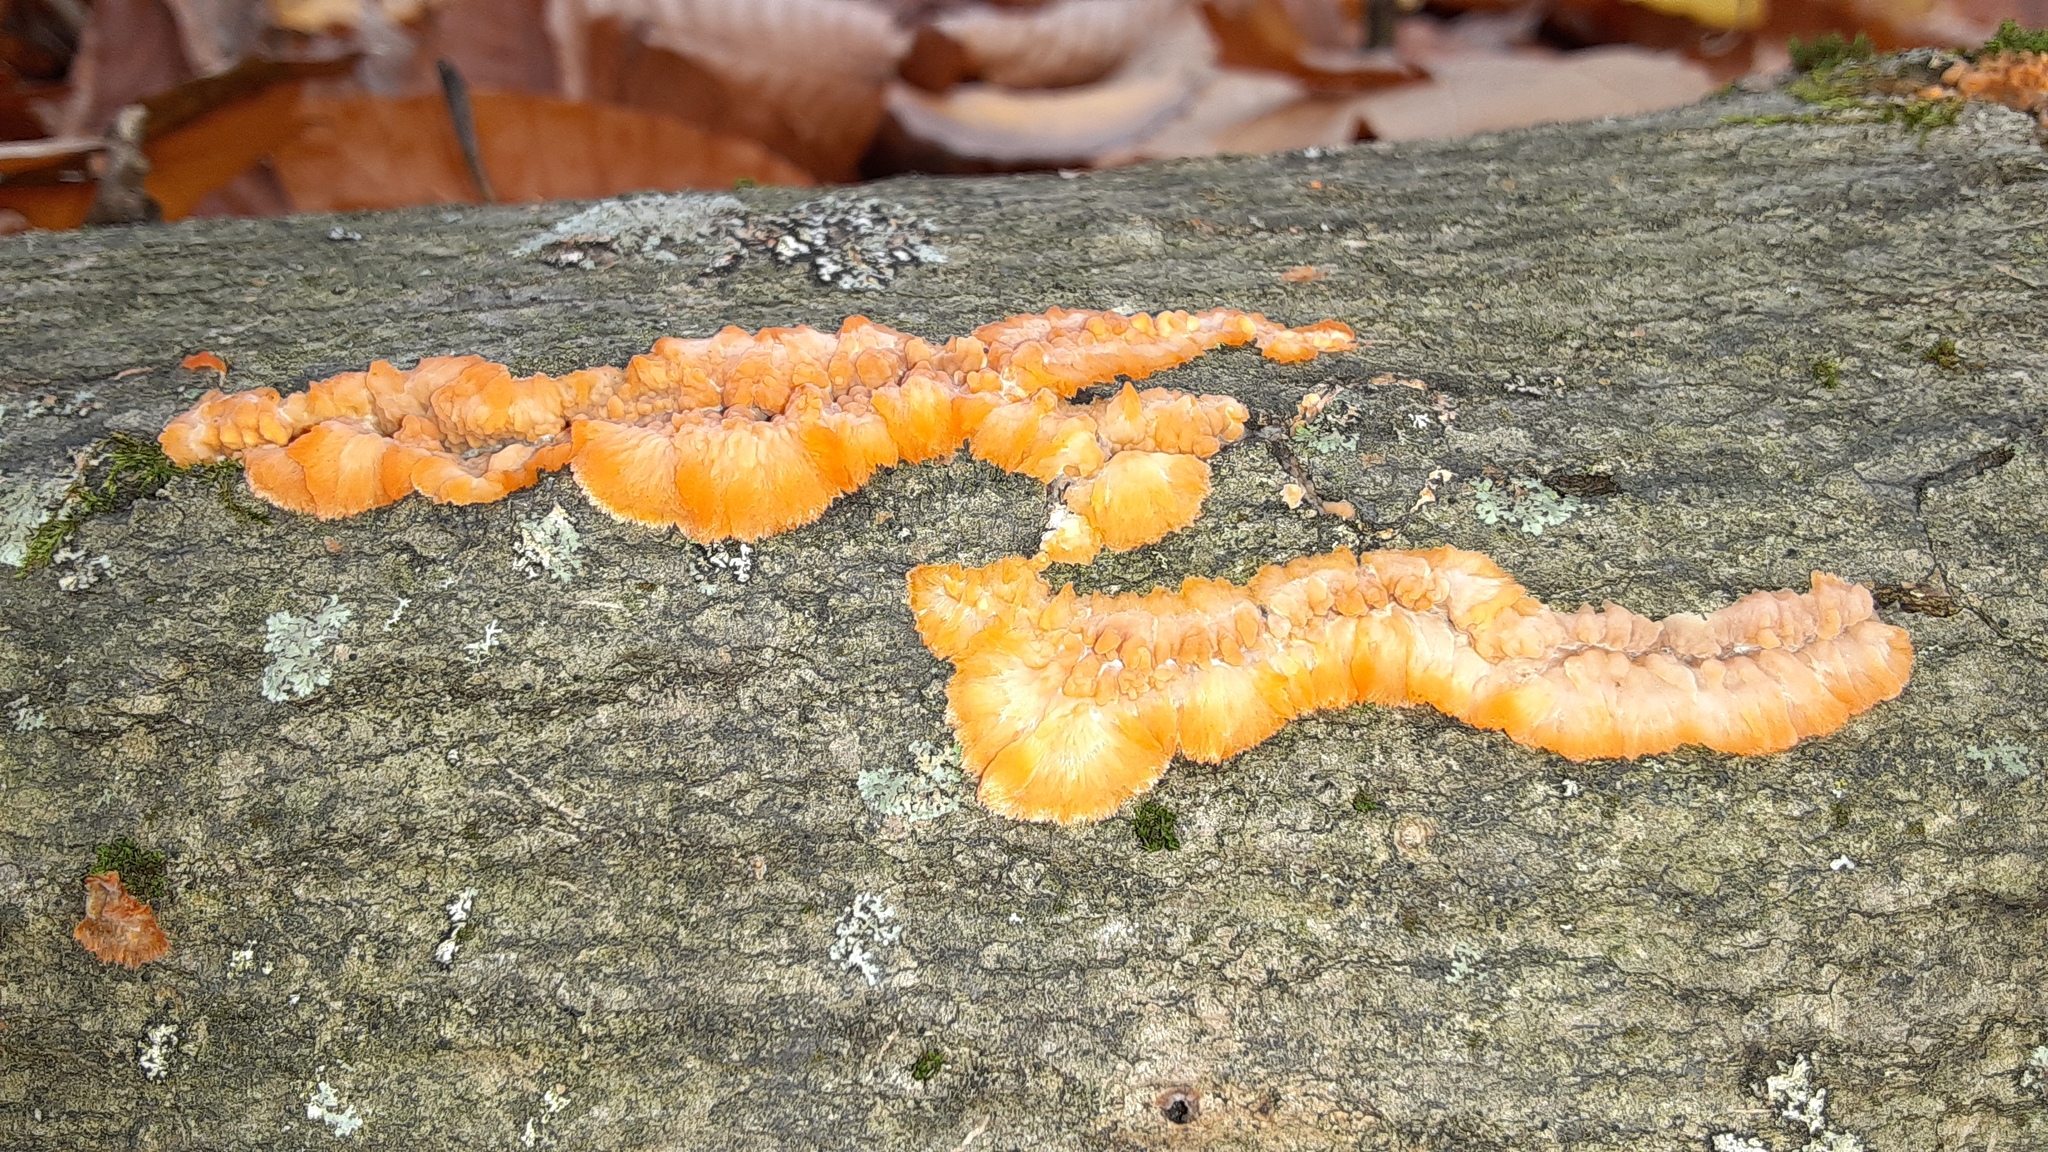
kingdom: Fungi
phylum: Basidiomycota
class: Agaricomycetes
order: Polyporales
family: Meruliaceae
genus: Phlebia
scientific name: Phlebia radiata
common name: Wrinkled crust
